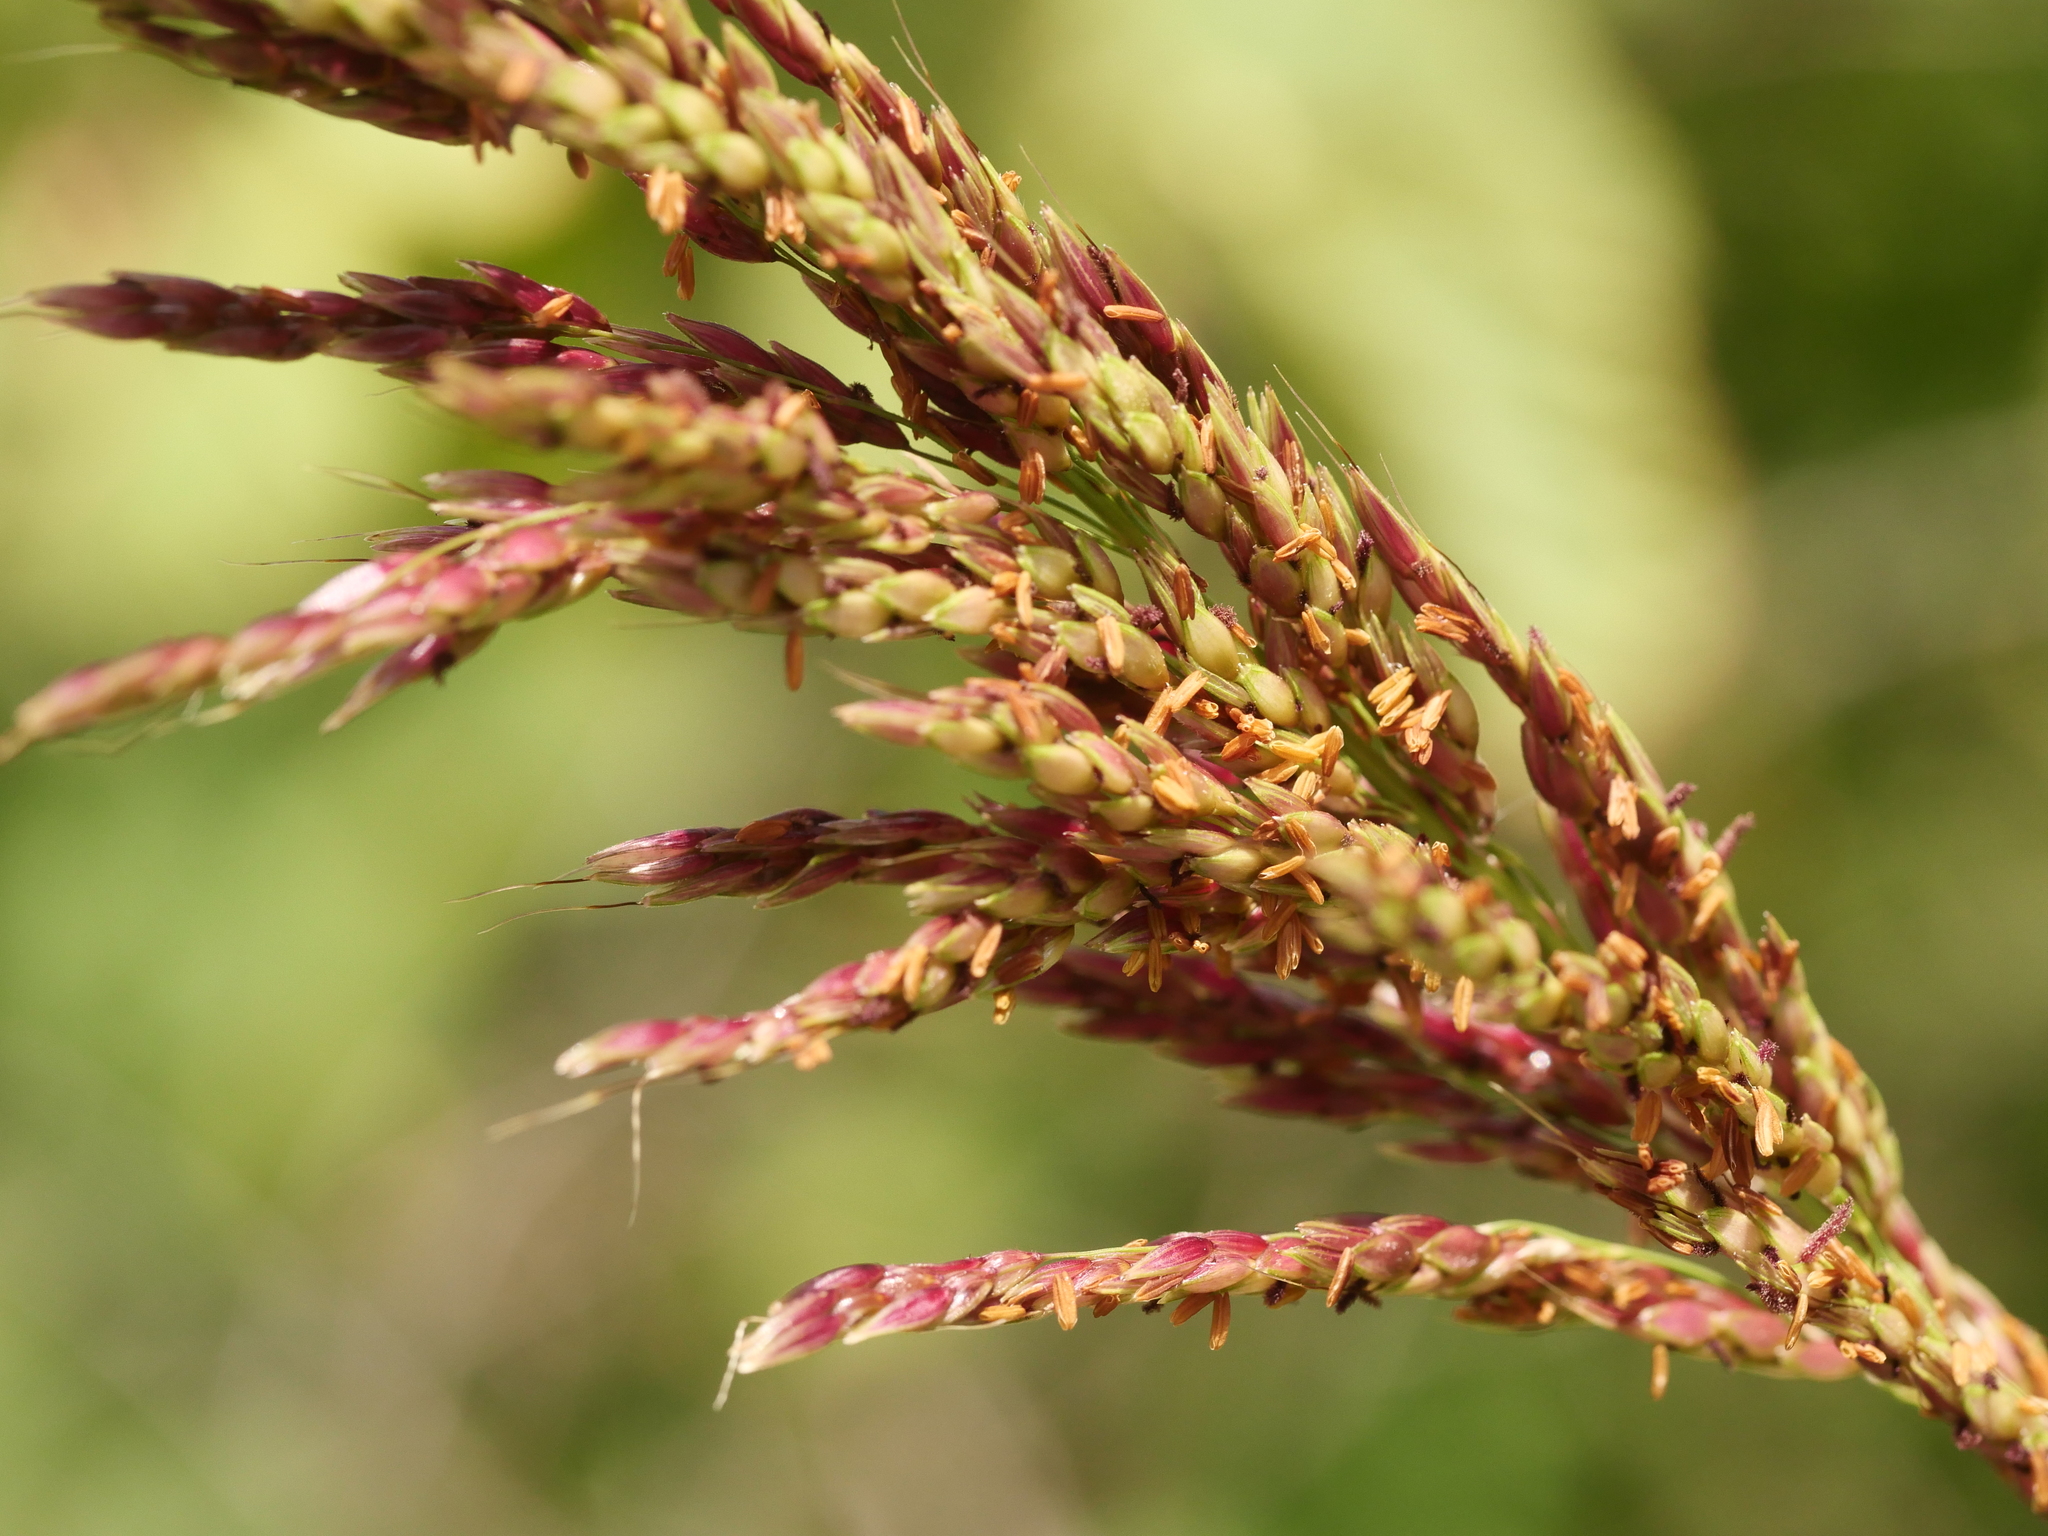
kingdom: Plantae
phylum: Tracheophyta
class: Liliopsida
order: Poales
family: Poaceae
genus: Sorghum
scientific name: Sorghum halepense
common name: Johnson-grass
